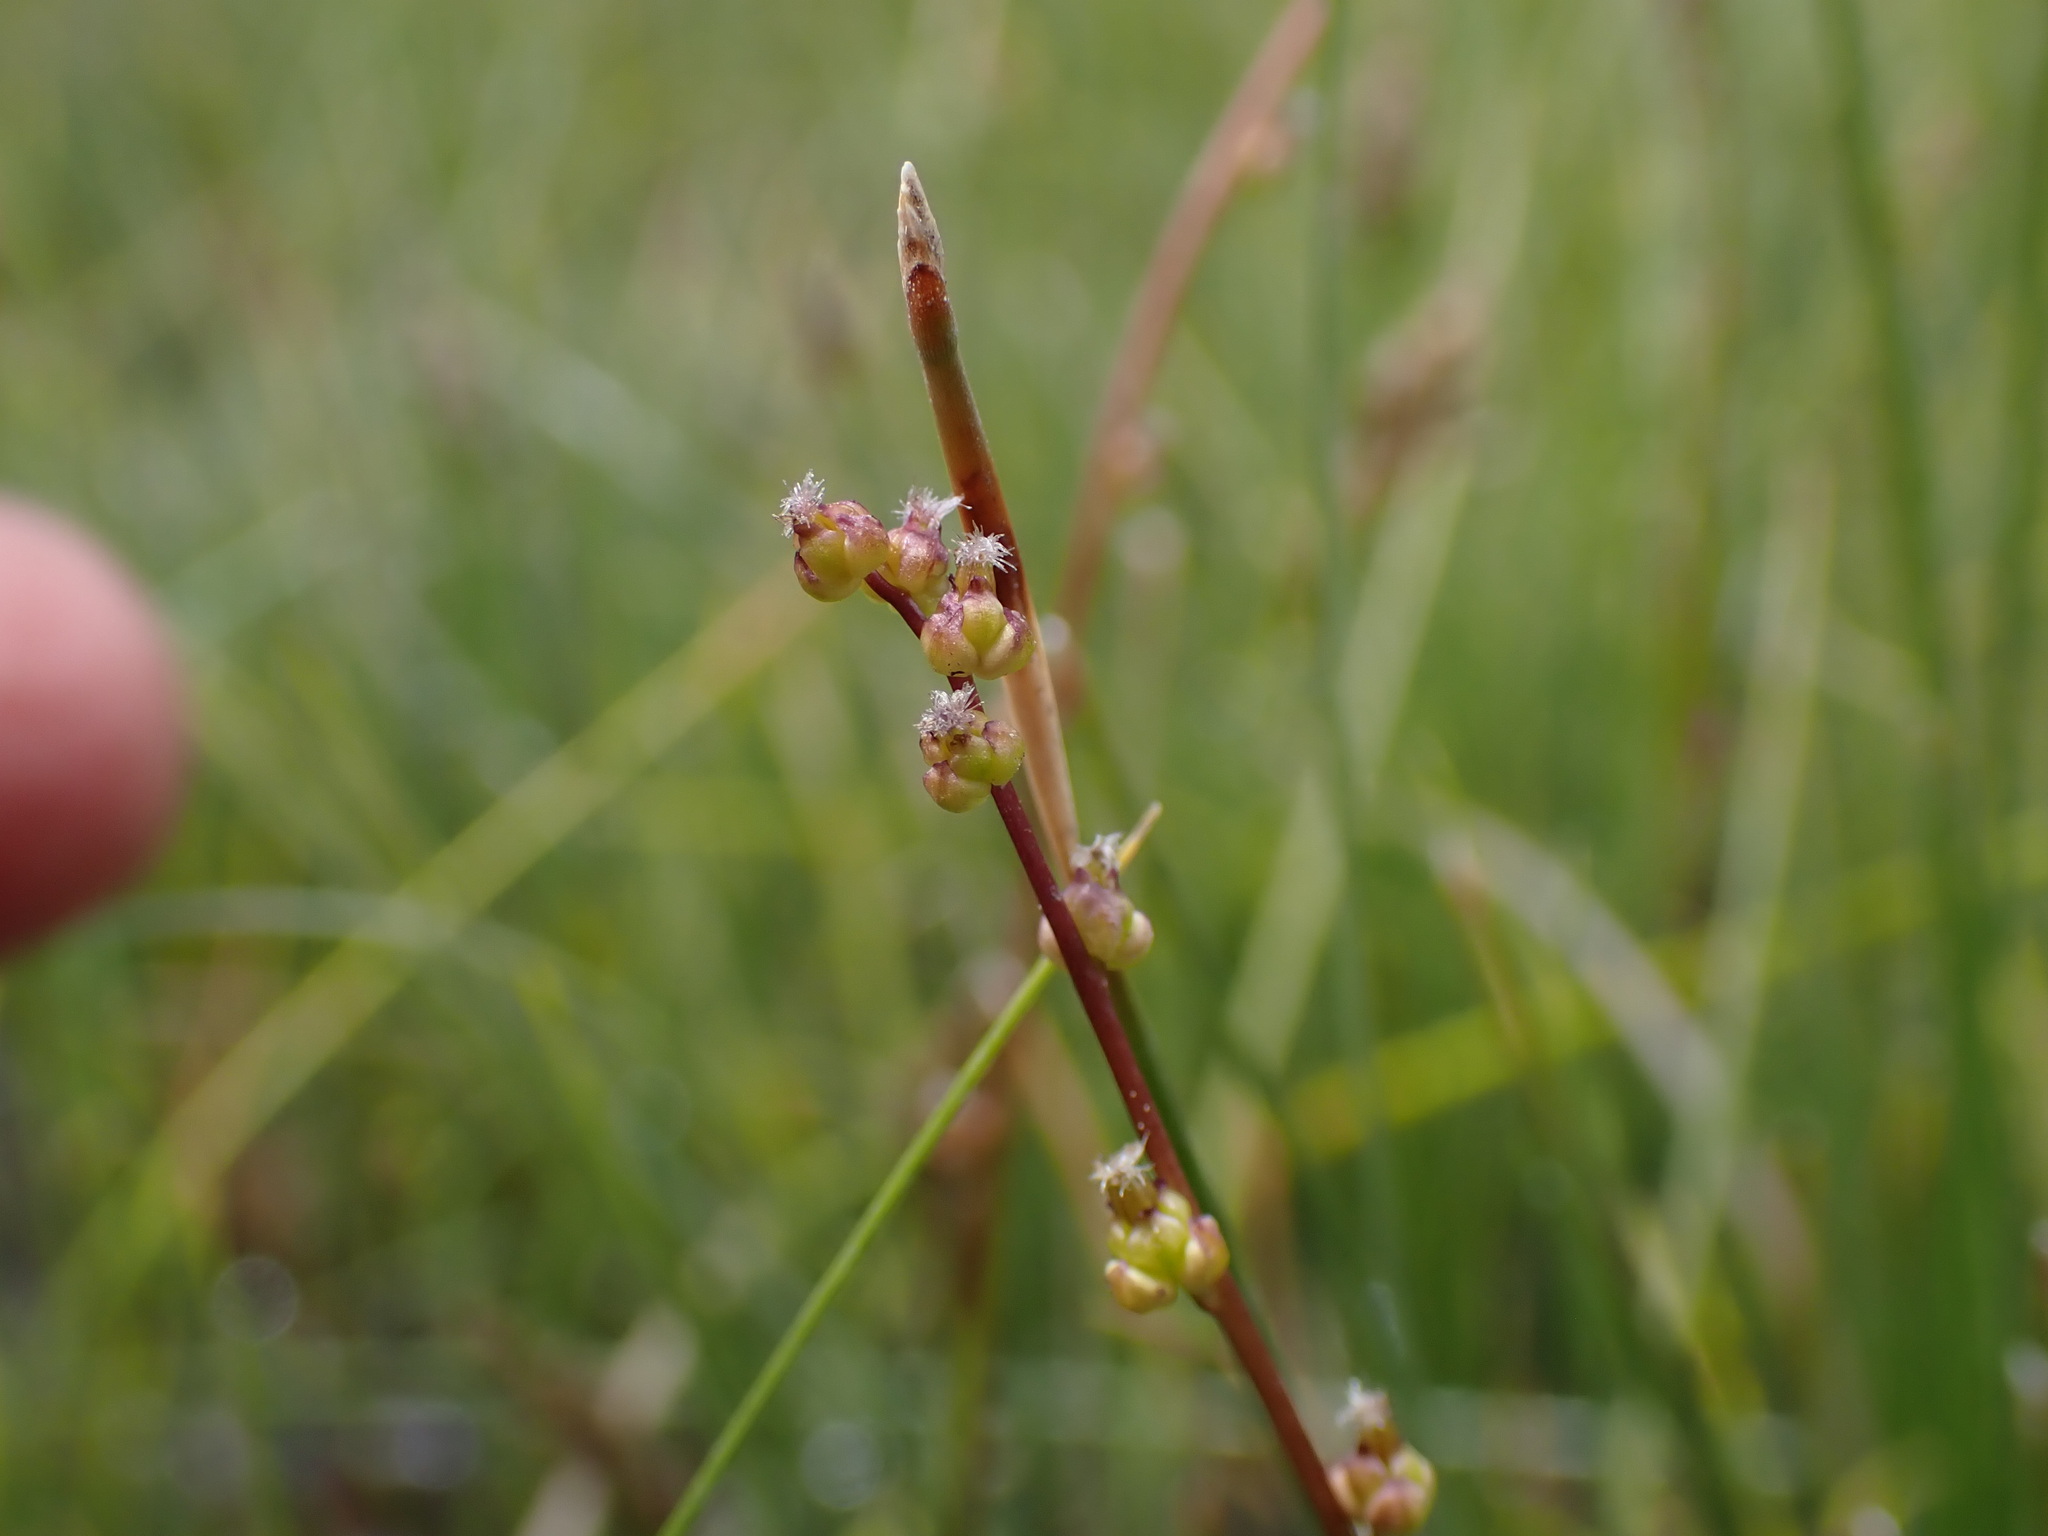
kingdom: Plantae
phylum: Tracheophyta
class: Liliopsida
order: Alismatales
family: Juncaginaceae
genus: Triglochin
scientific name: Triglochin palustris
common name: Marsh arrowgrass
